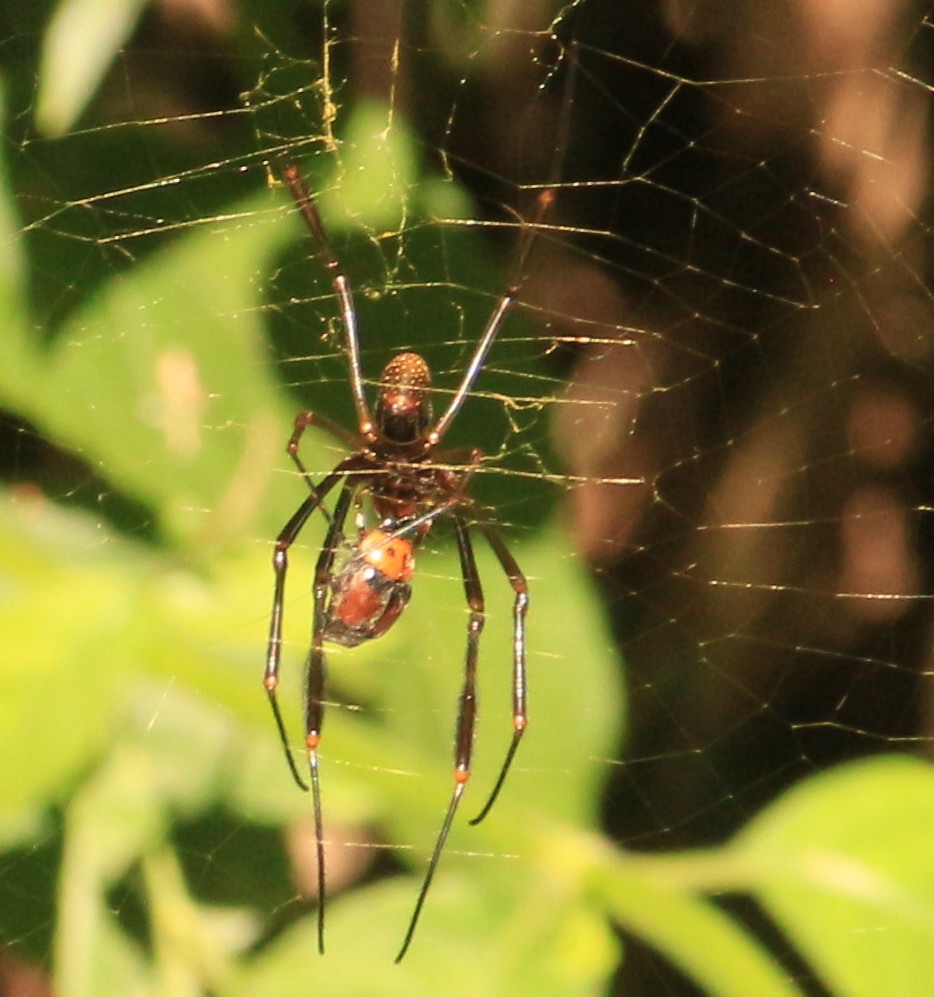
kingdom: Animalia
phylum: Arthropoda
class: Arachnida
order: Araneae
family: Araneidae
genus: Trichonephila
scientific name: Trichonephila clavipes
